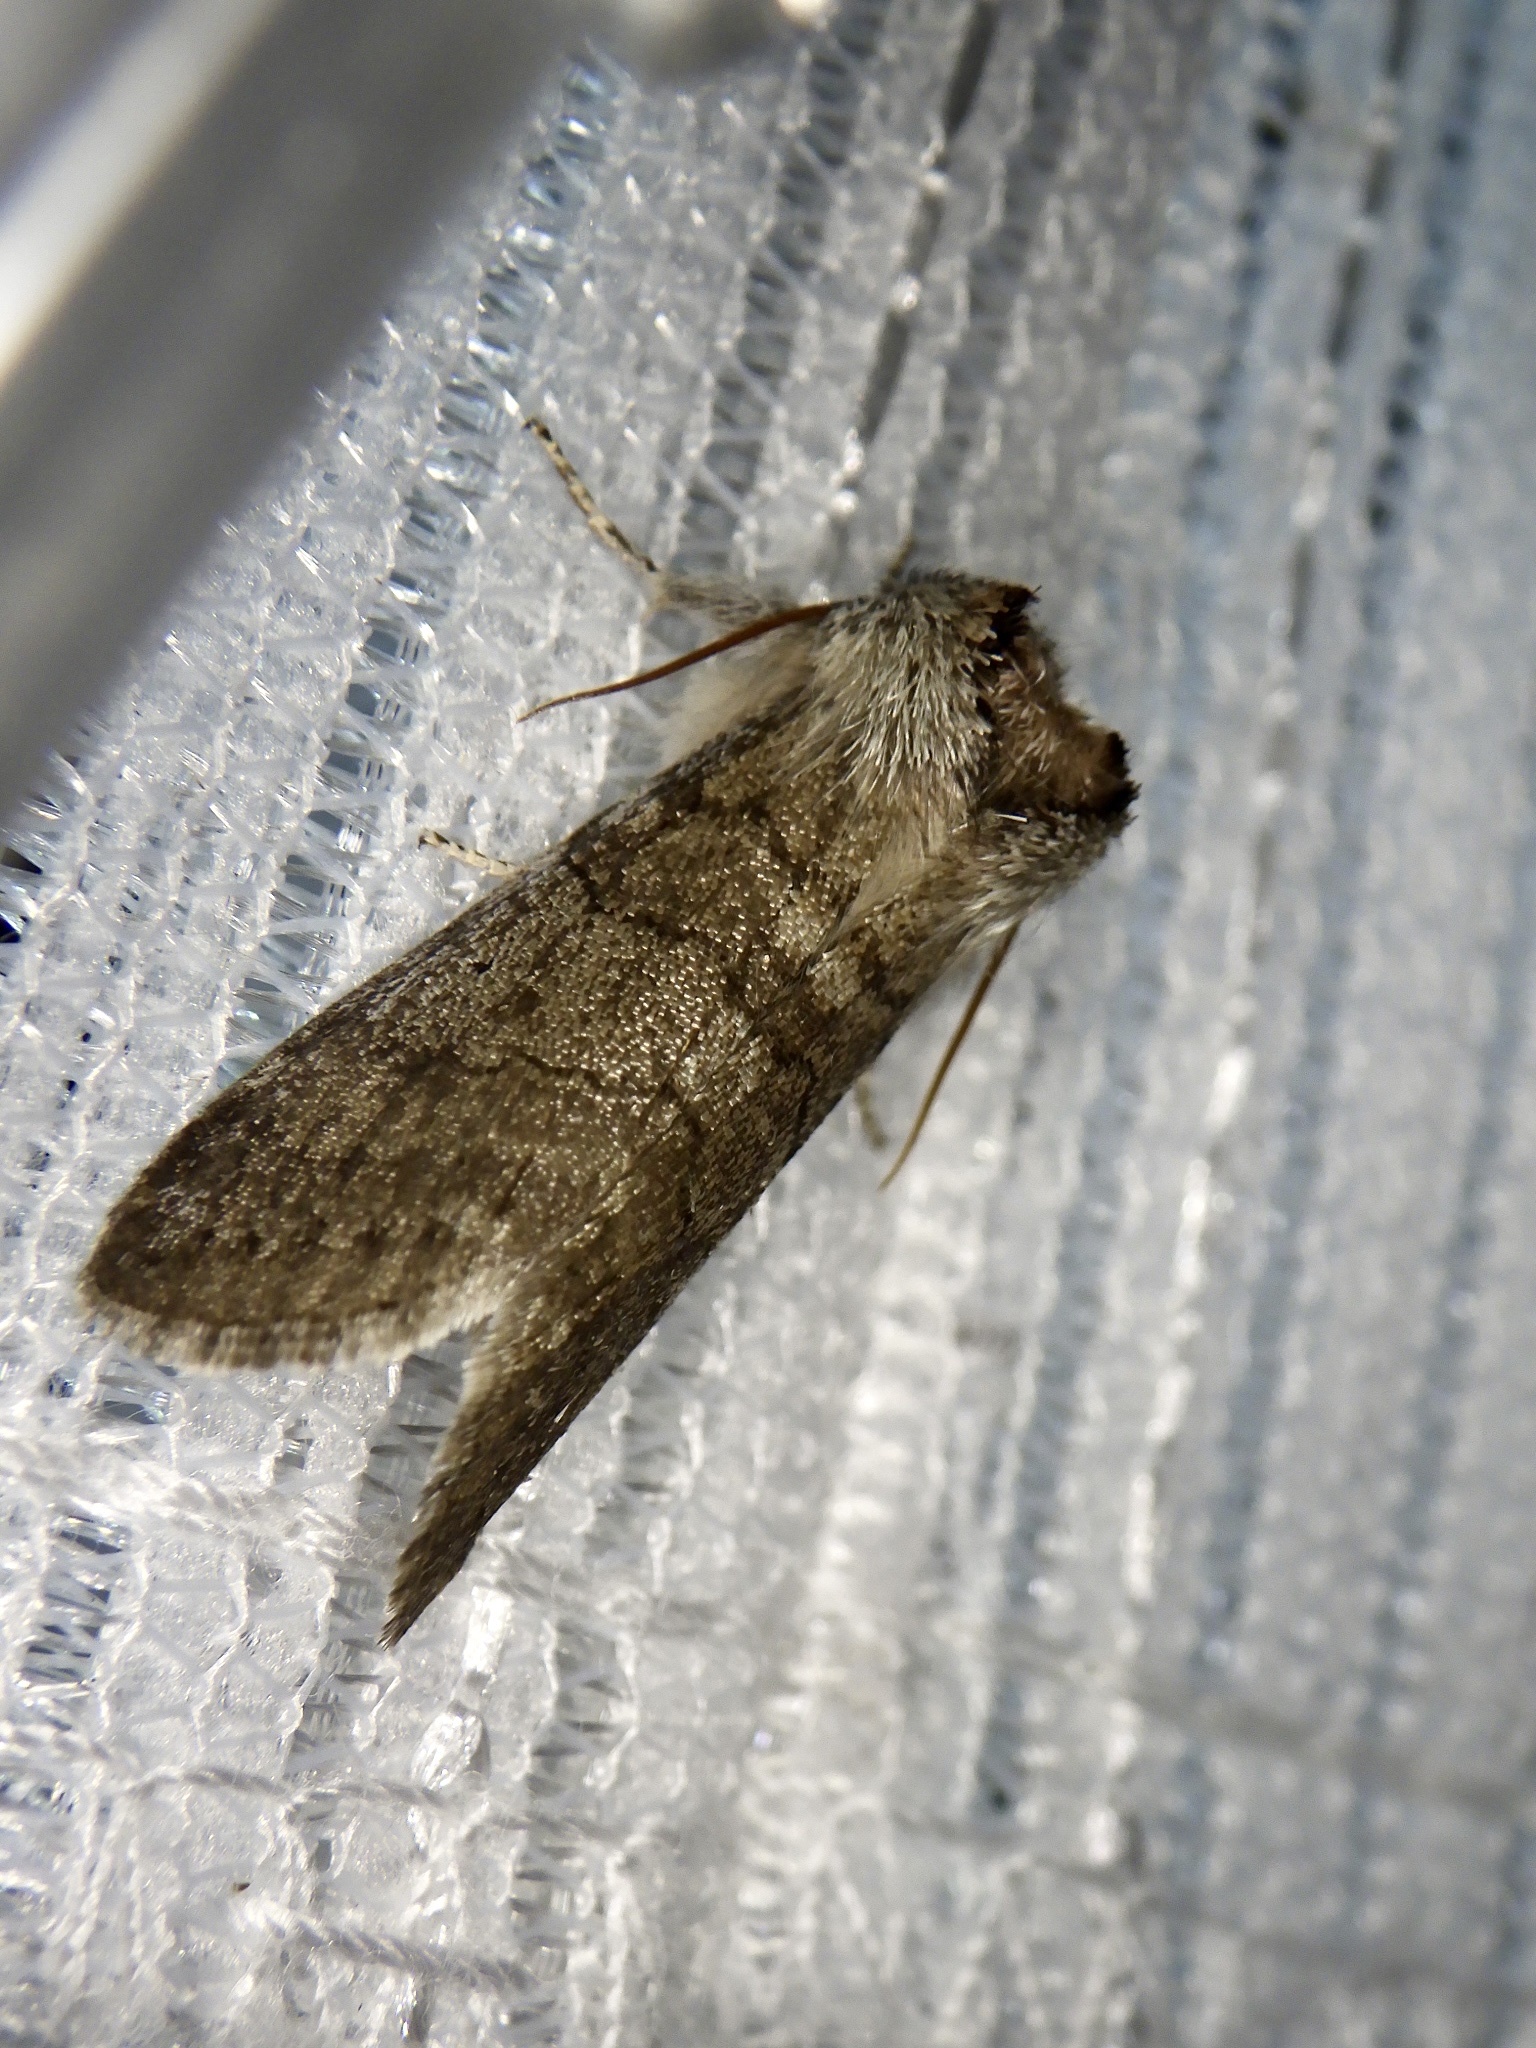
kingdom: Animalia
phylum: Arthropoda
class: Insecta
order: Lepidoptera
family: Drepanidae
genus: Achlya
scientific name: Achlya kuramana
